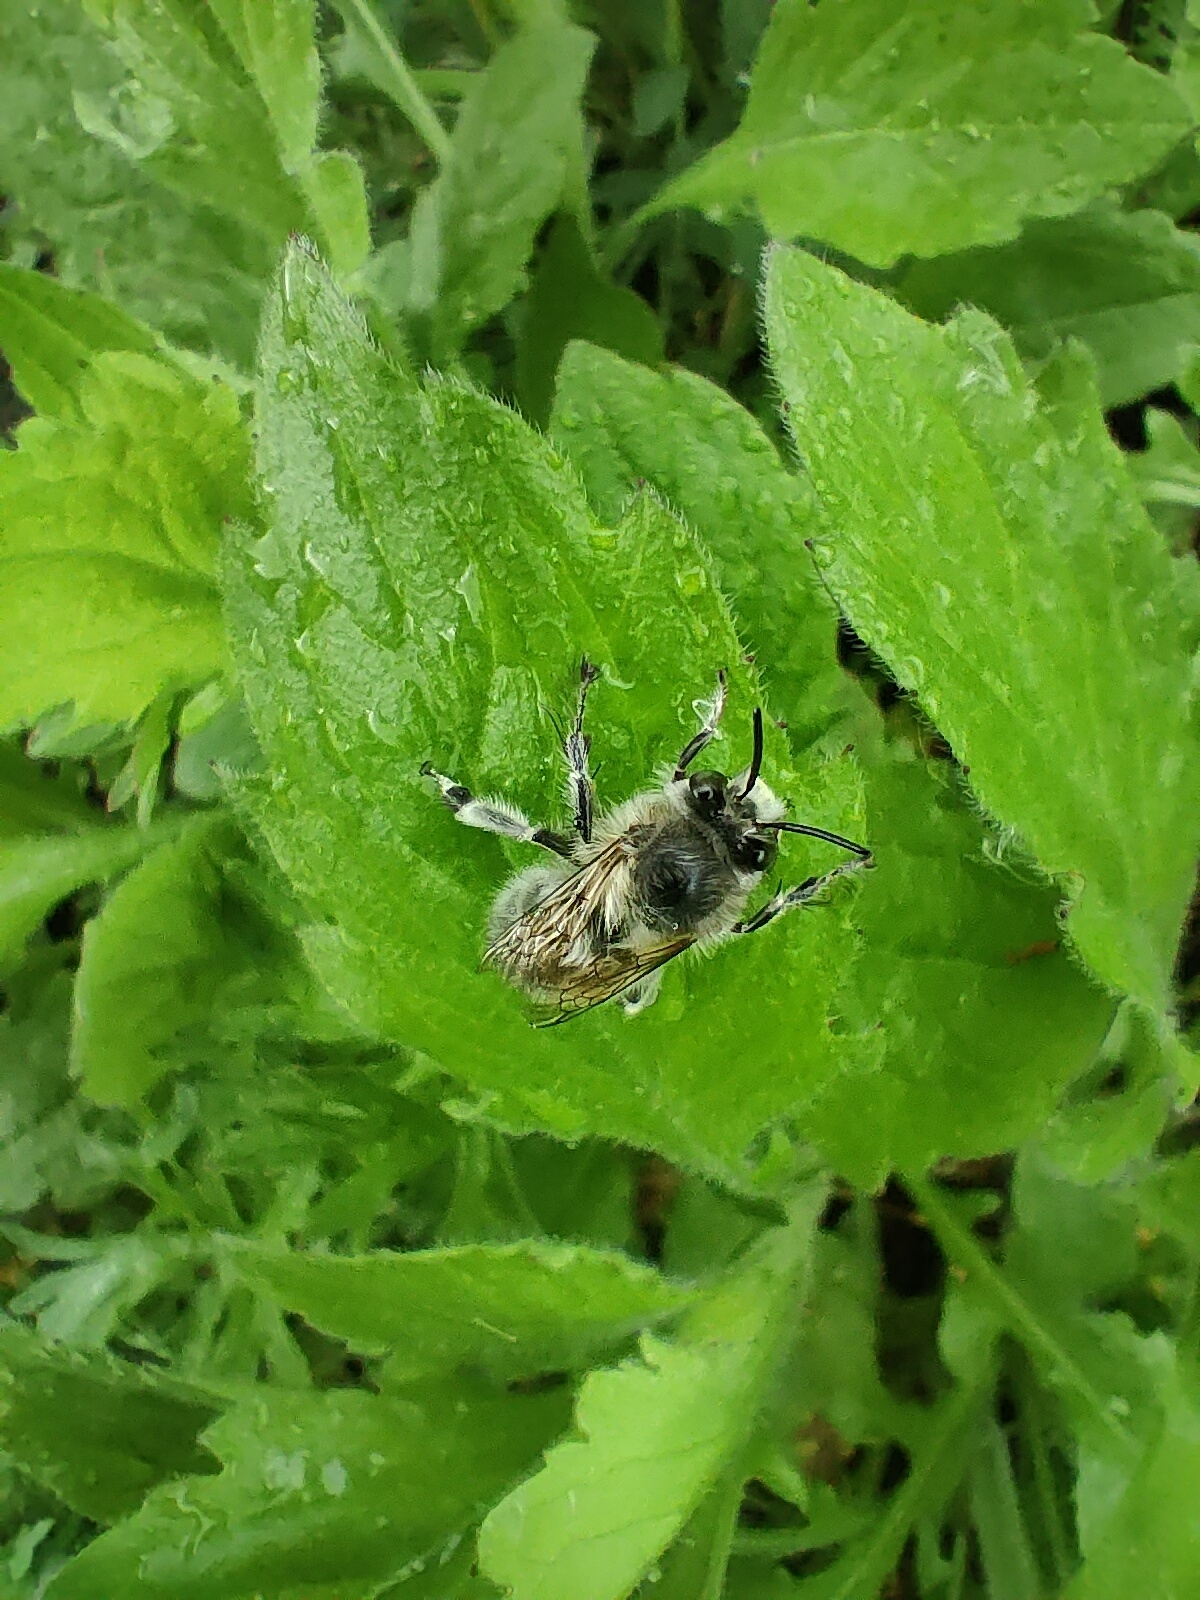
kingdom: Animalia
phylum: Arthropoda
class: Insecta
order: Hymenoptera
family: Apidae
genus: Anthophora
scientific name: Anthophora plumipes
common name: Hairy-footed flower bee
